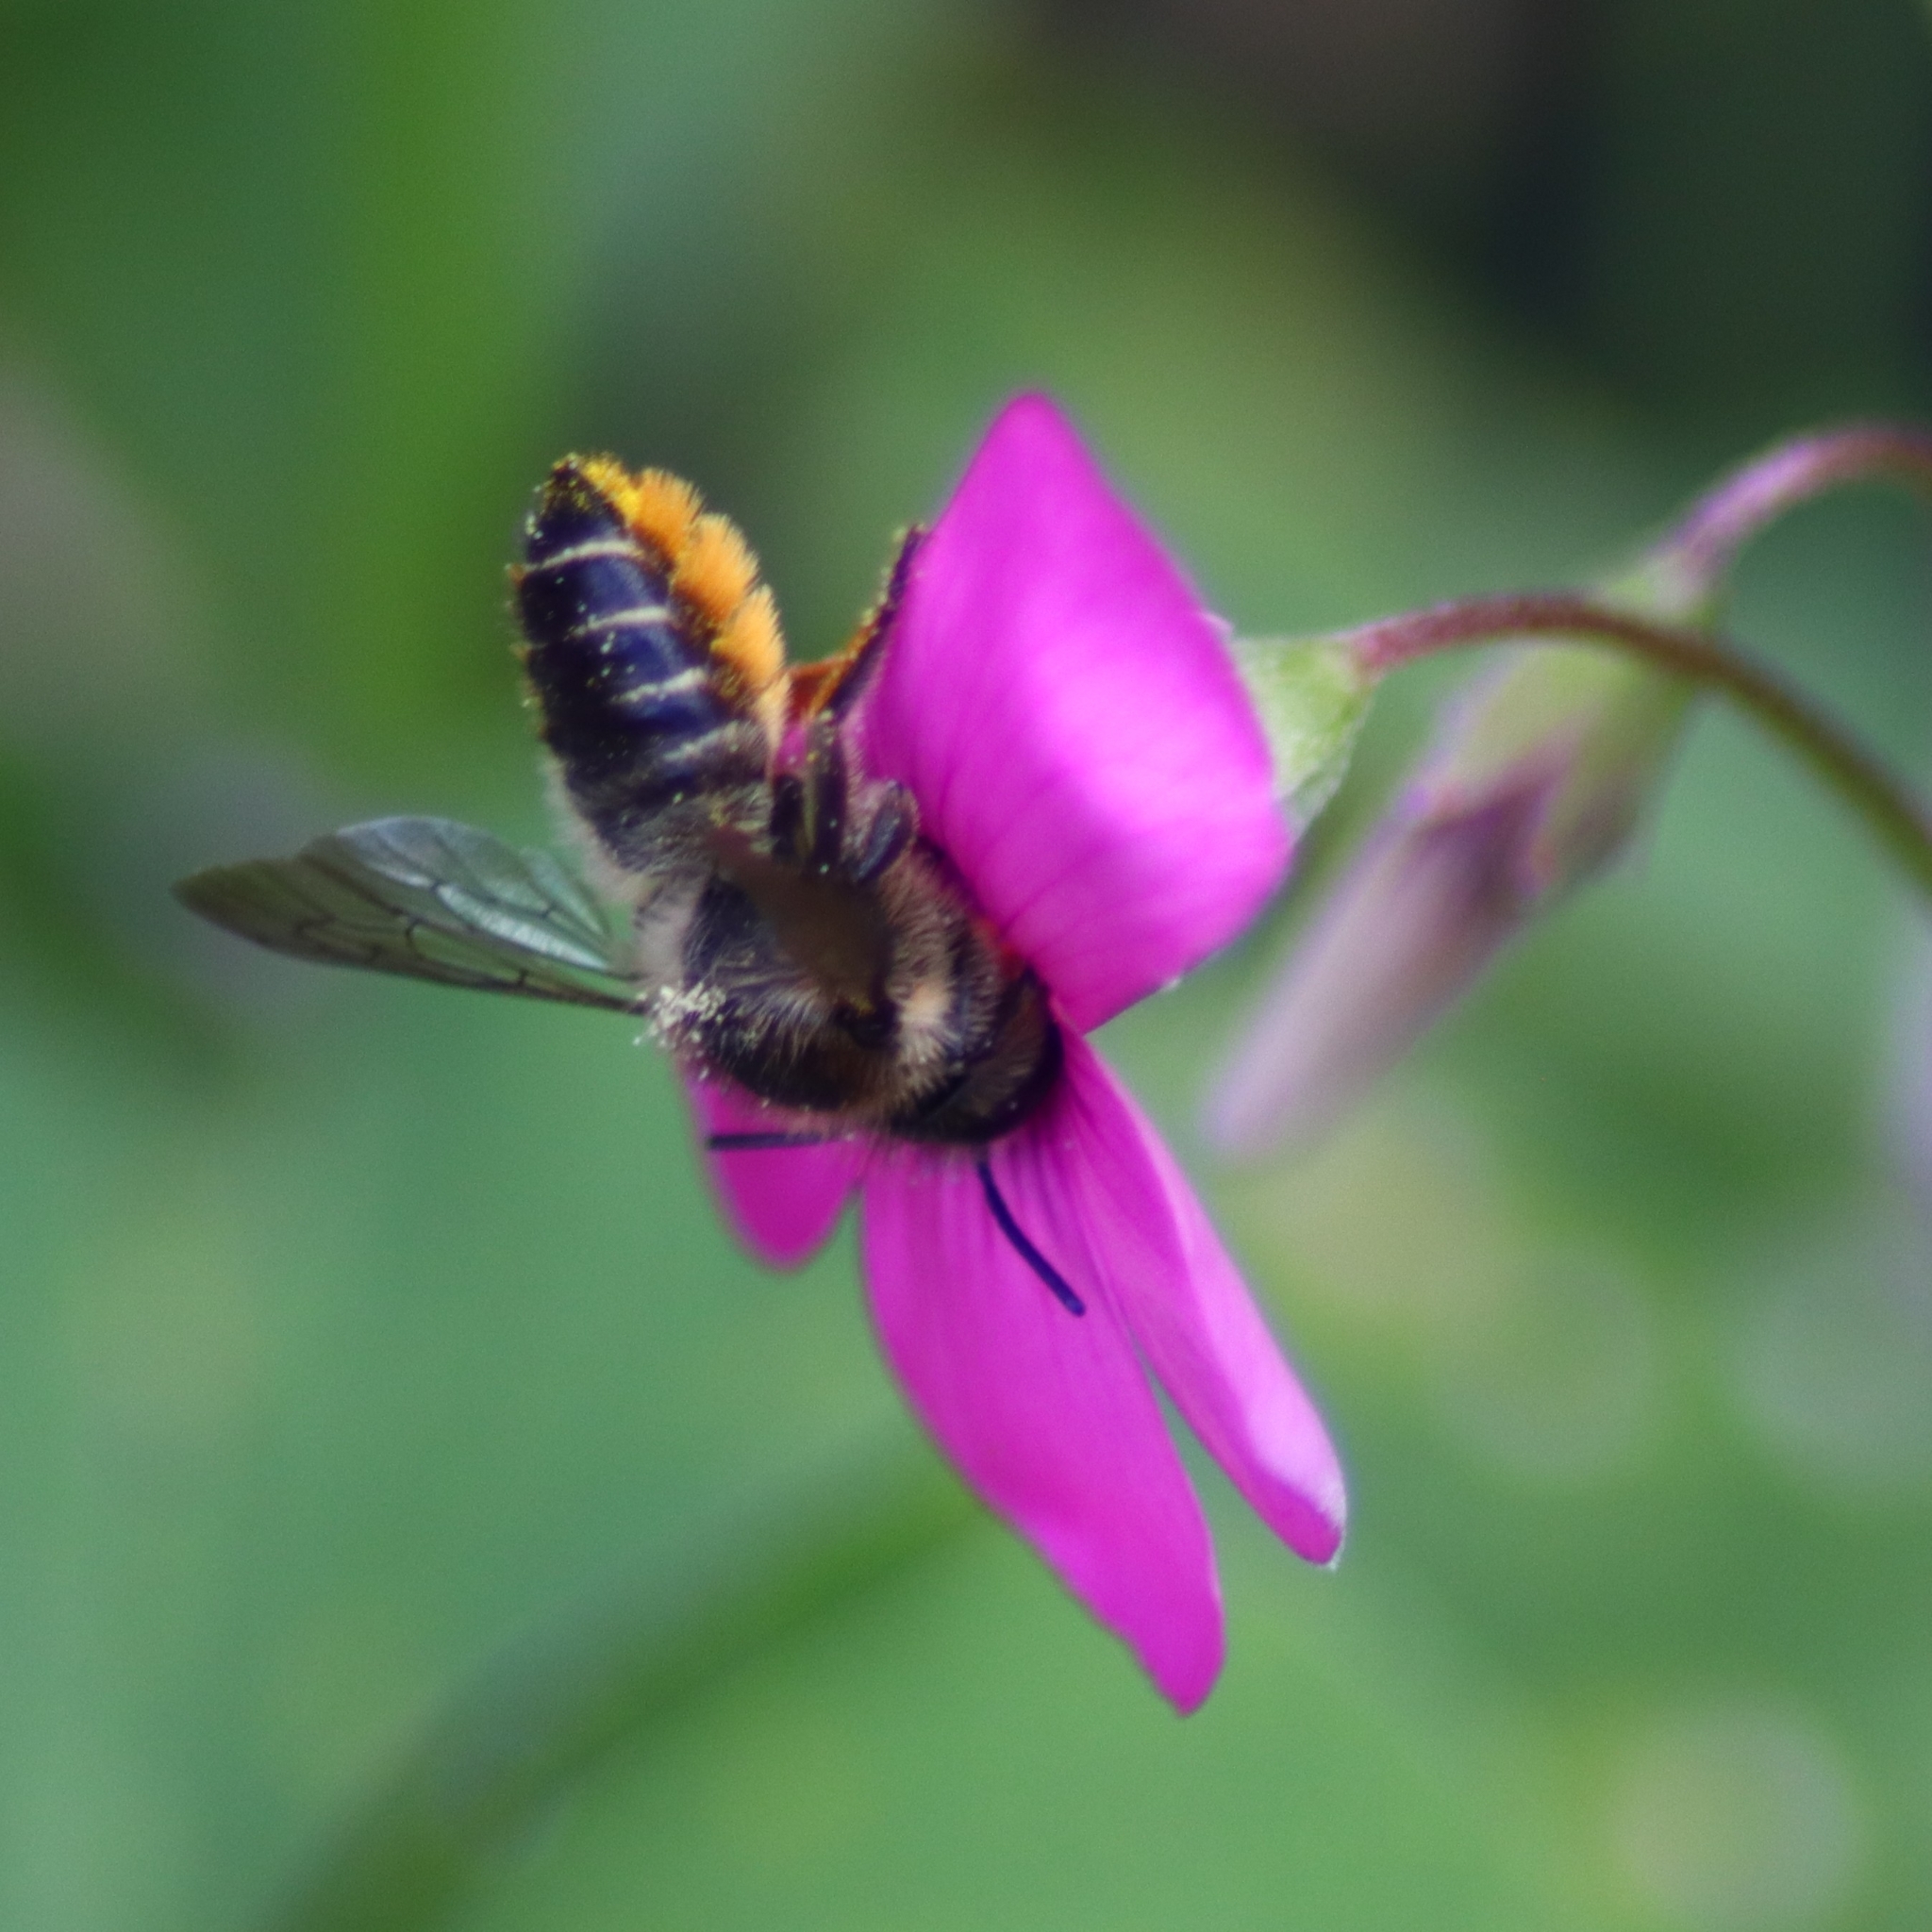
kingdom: Animalia
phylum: Arthropoda
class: Insecta
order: Hymenoptera
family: Megachilidae
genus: Megachile
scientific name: Megachile centuncularis
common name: Patchwork leafcutter bee
